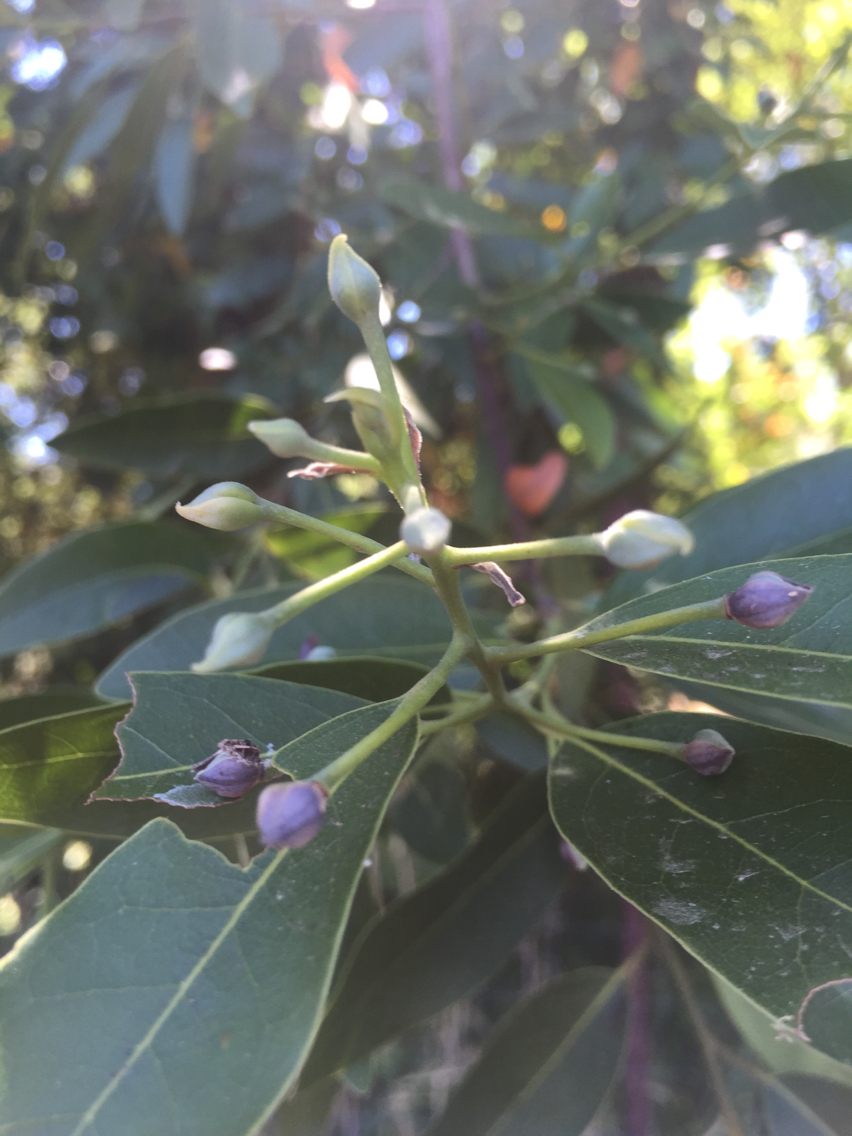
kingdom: Plantae
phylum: Tracheophyta
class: Magnoliopsida
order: Laurales
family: Lauraceae
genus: Umbellularia
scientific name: Umbellularia californica
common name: California bay
